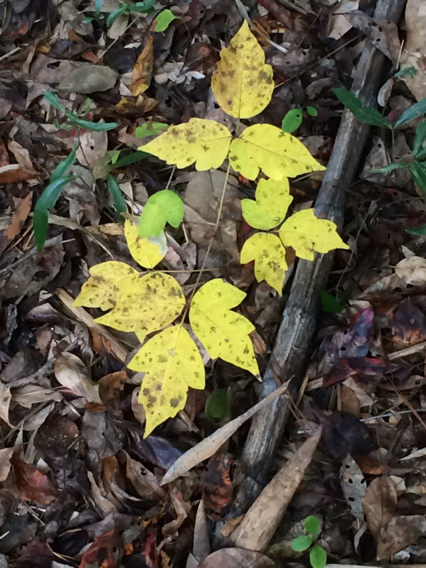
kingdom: Plantae
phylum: Tracheophyta
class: Magnoliopsida
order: Sapindales
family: Anacardiaceae
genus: Toxicodendron
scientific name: Toxicodendron radicans
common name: Poison ivy
